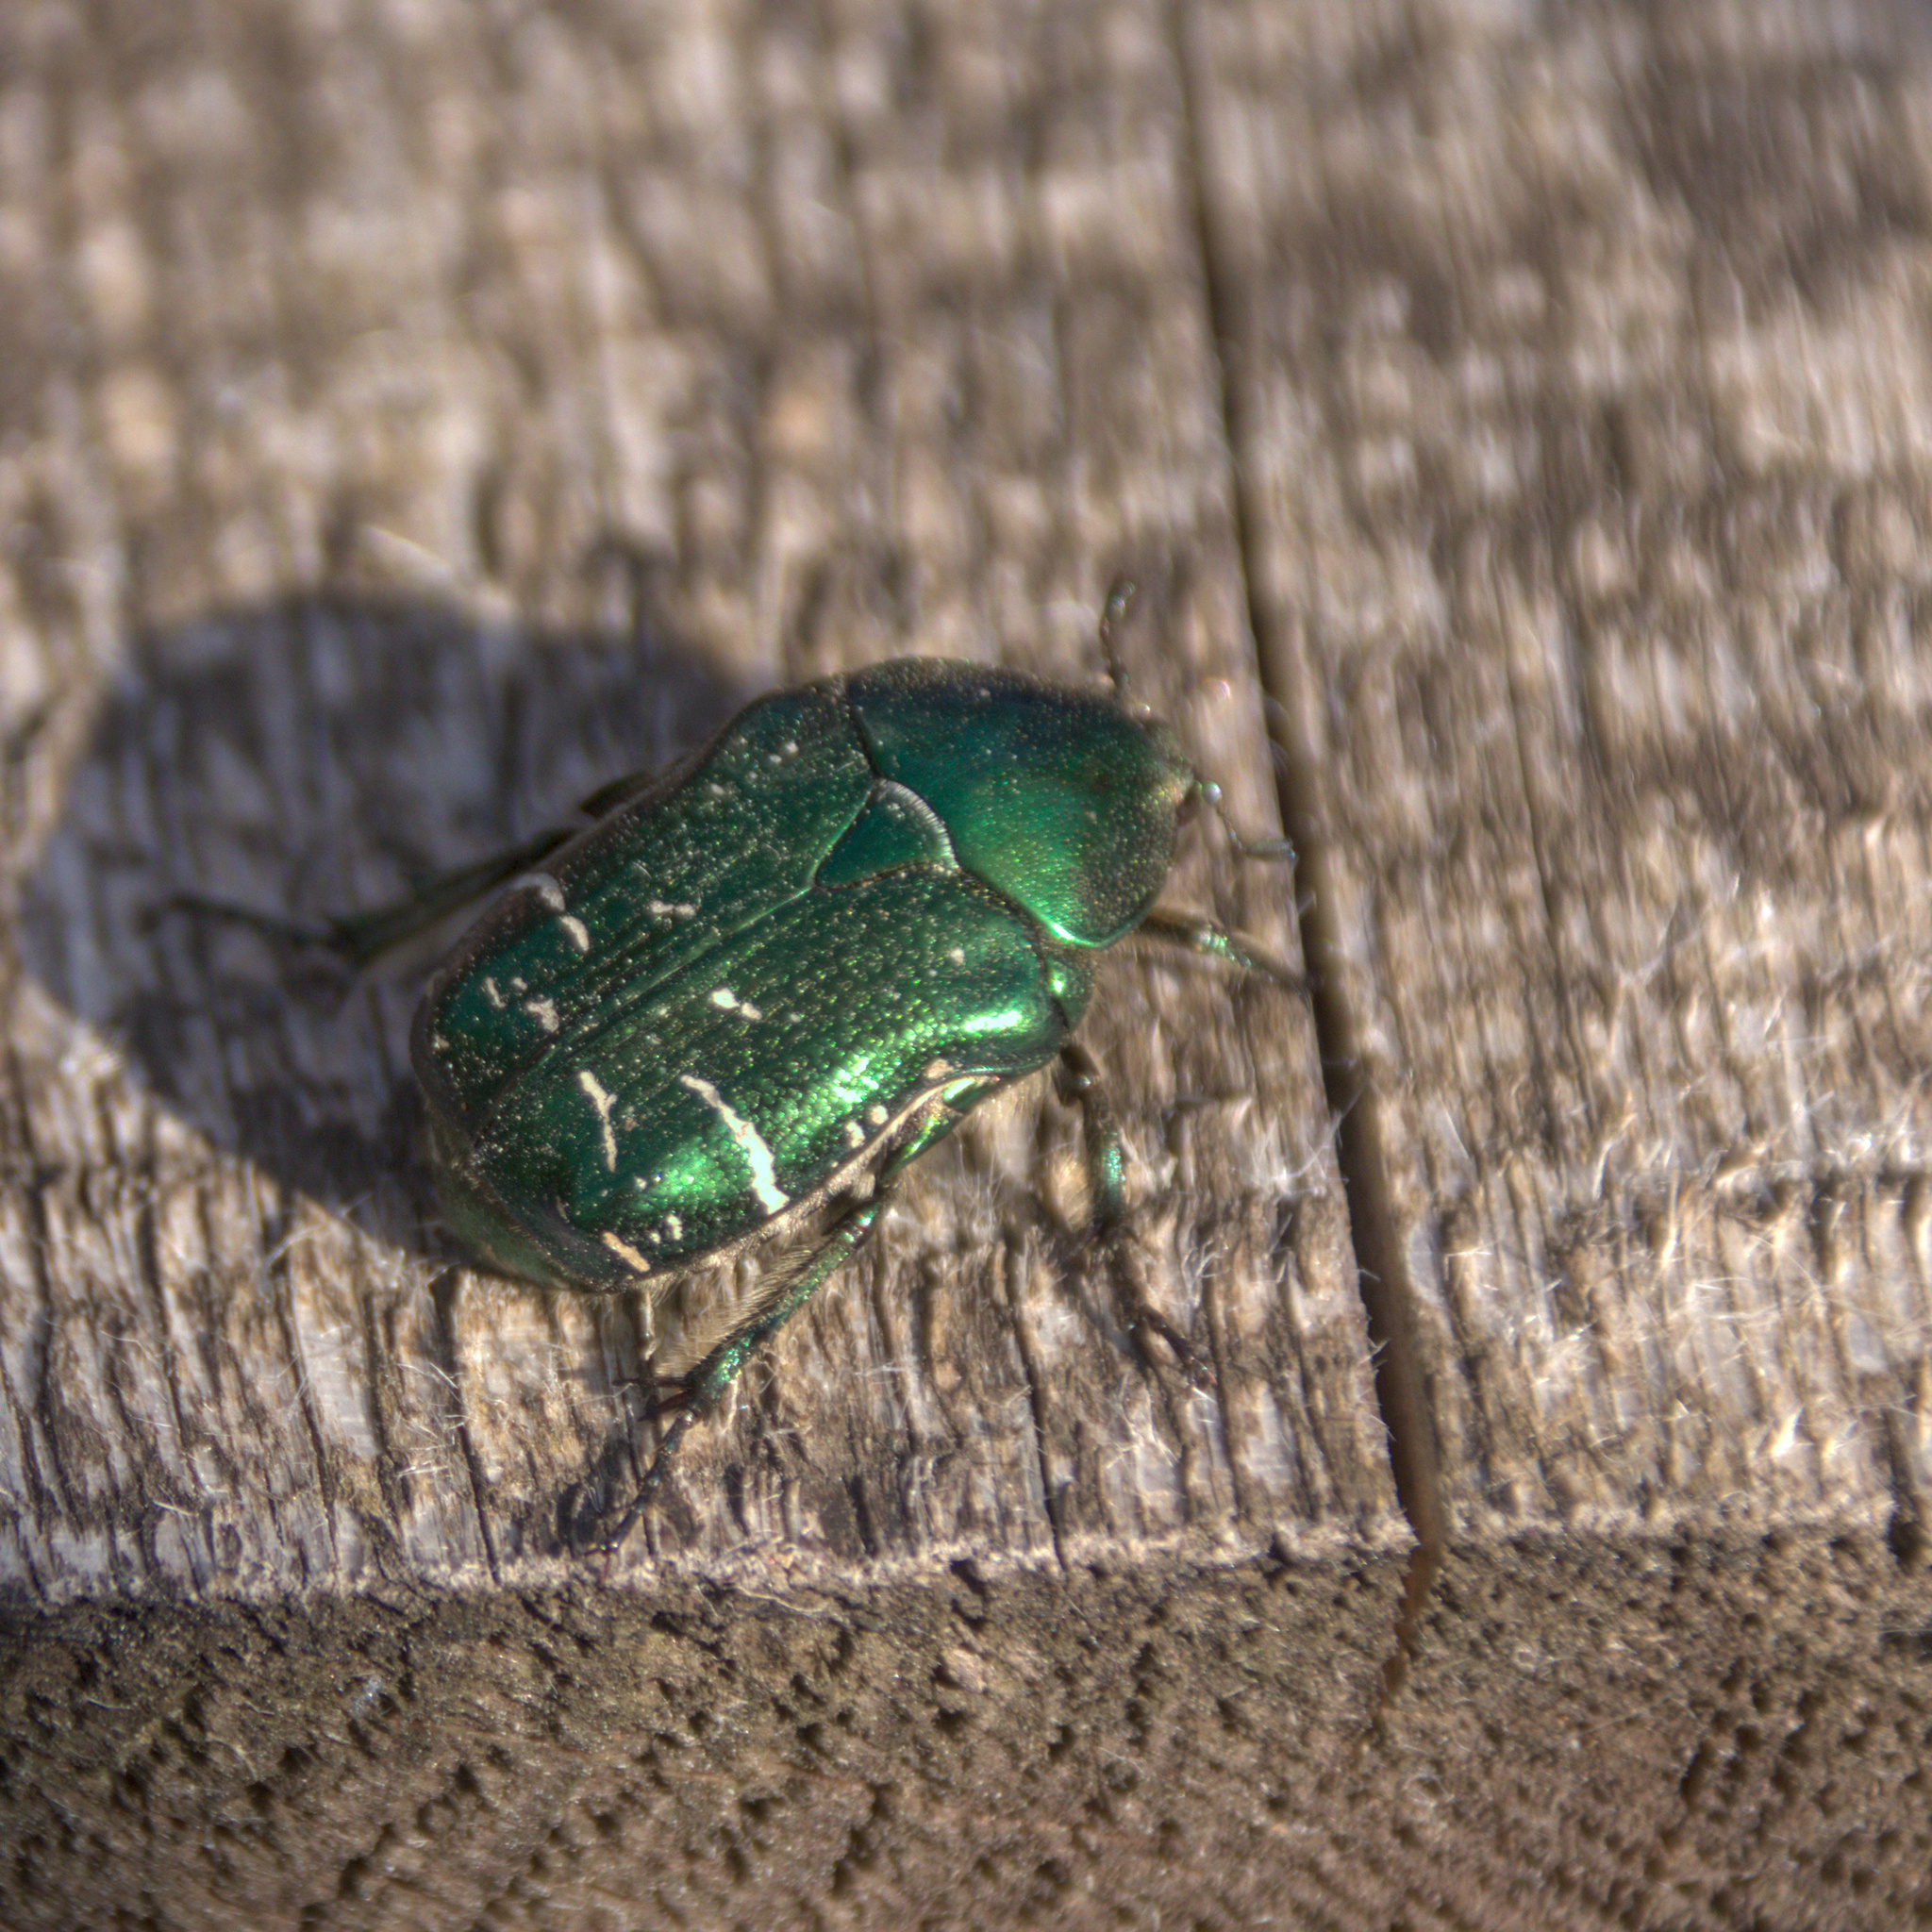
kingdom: Animalia
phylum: Arthropoda
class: Insecta
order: Coleoptera
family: Scarabaeidae
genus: Cetonia
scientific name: Cetonia aurata
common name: Rose chafer
